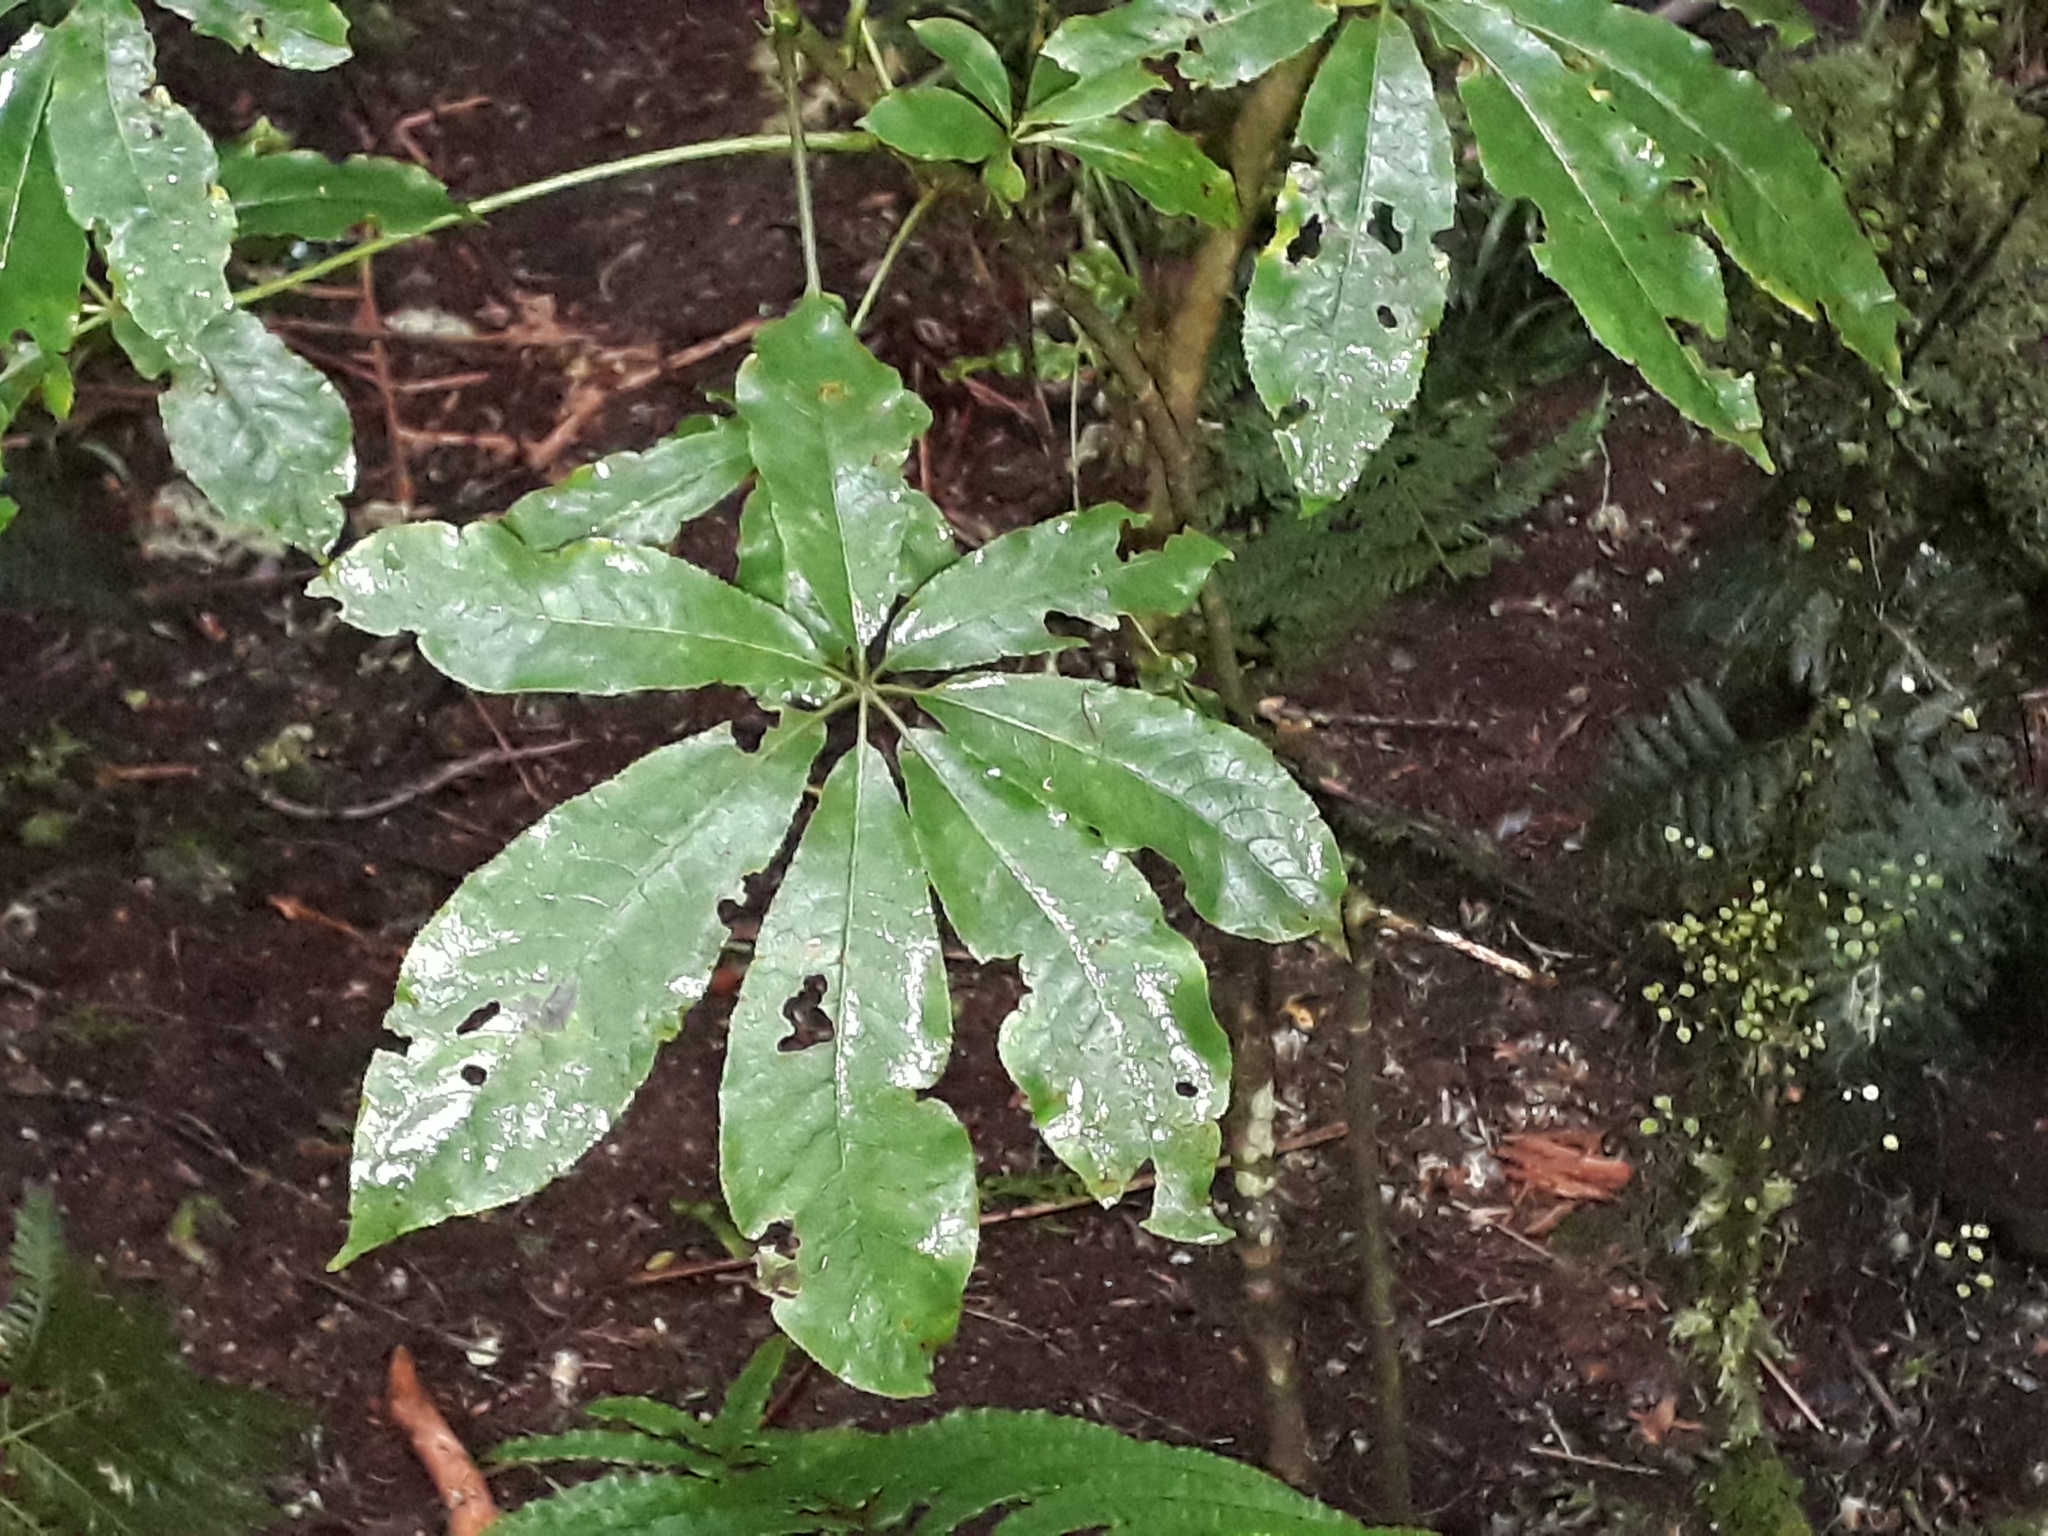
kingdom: Plantae
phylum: Tracheophyta
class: Magnoliopsida
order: Apiales
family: Araliaceae
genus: Schefflera
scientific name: Schefflera digitata
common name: Pate
